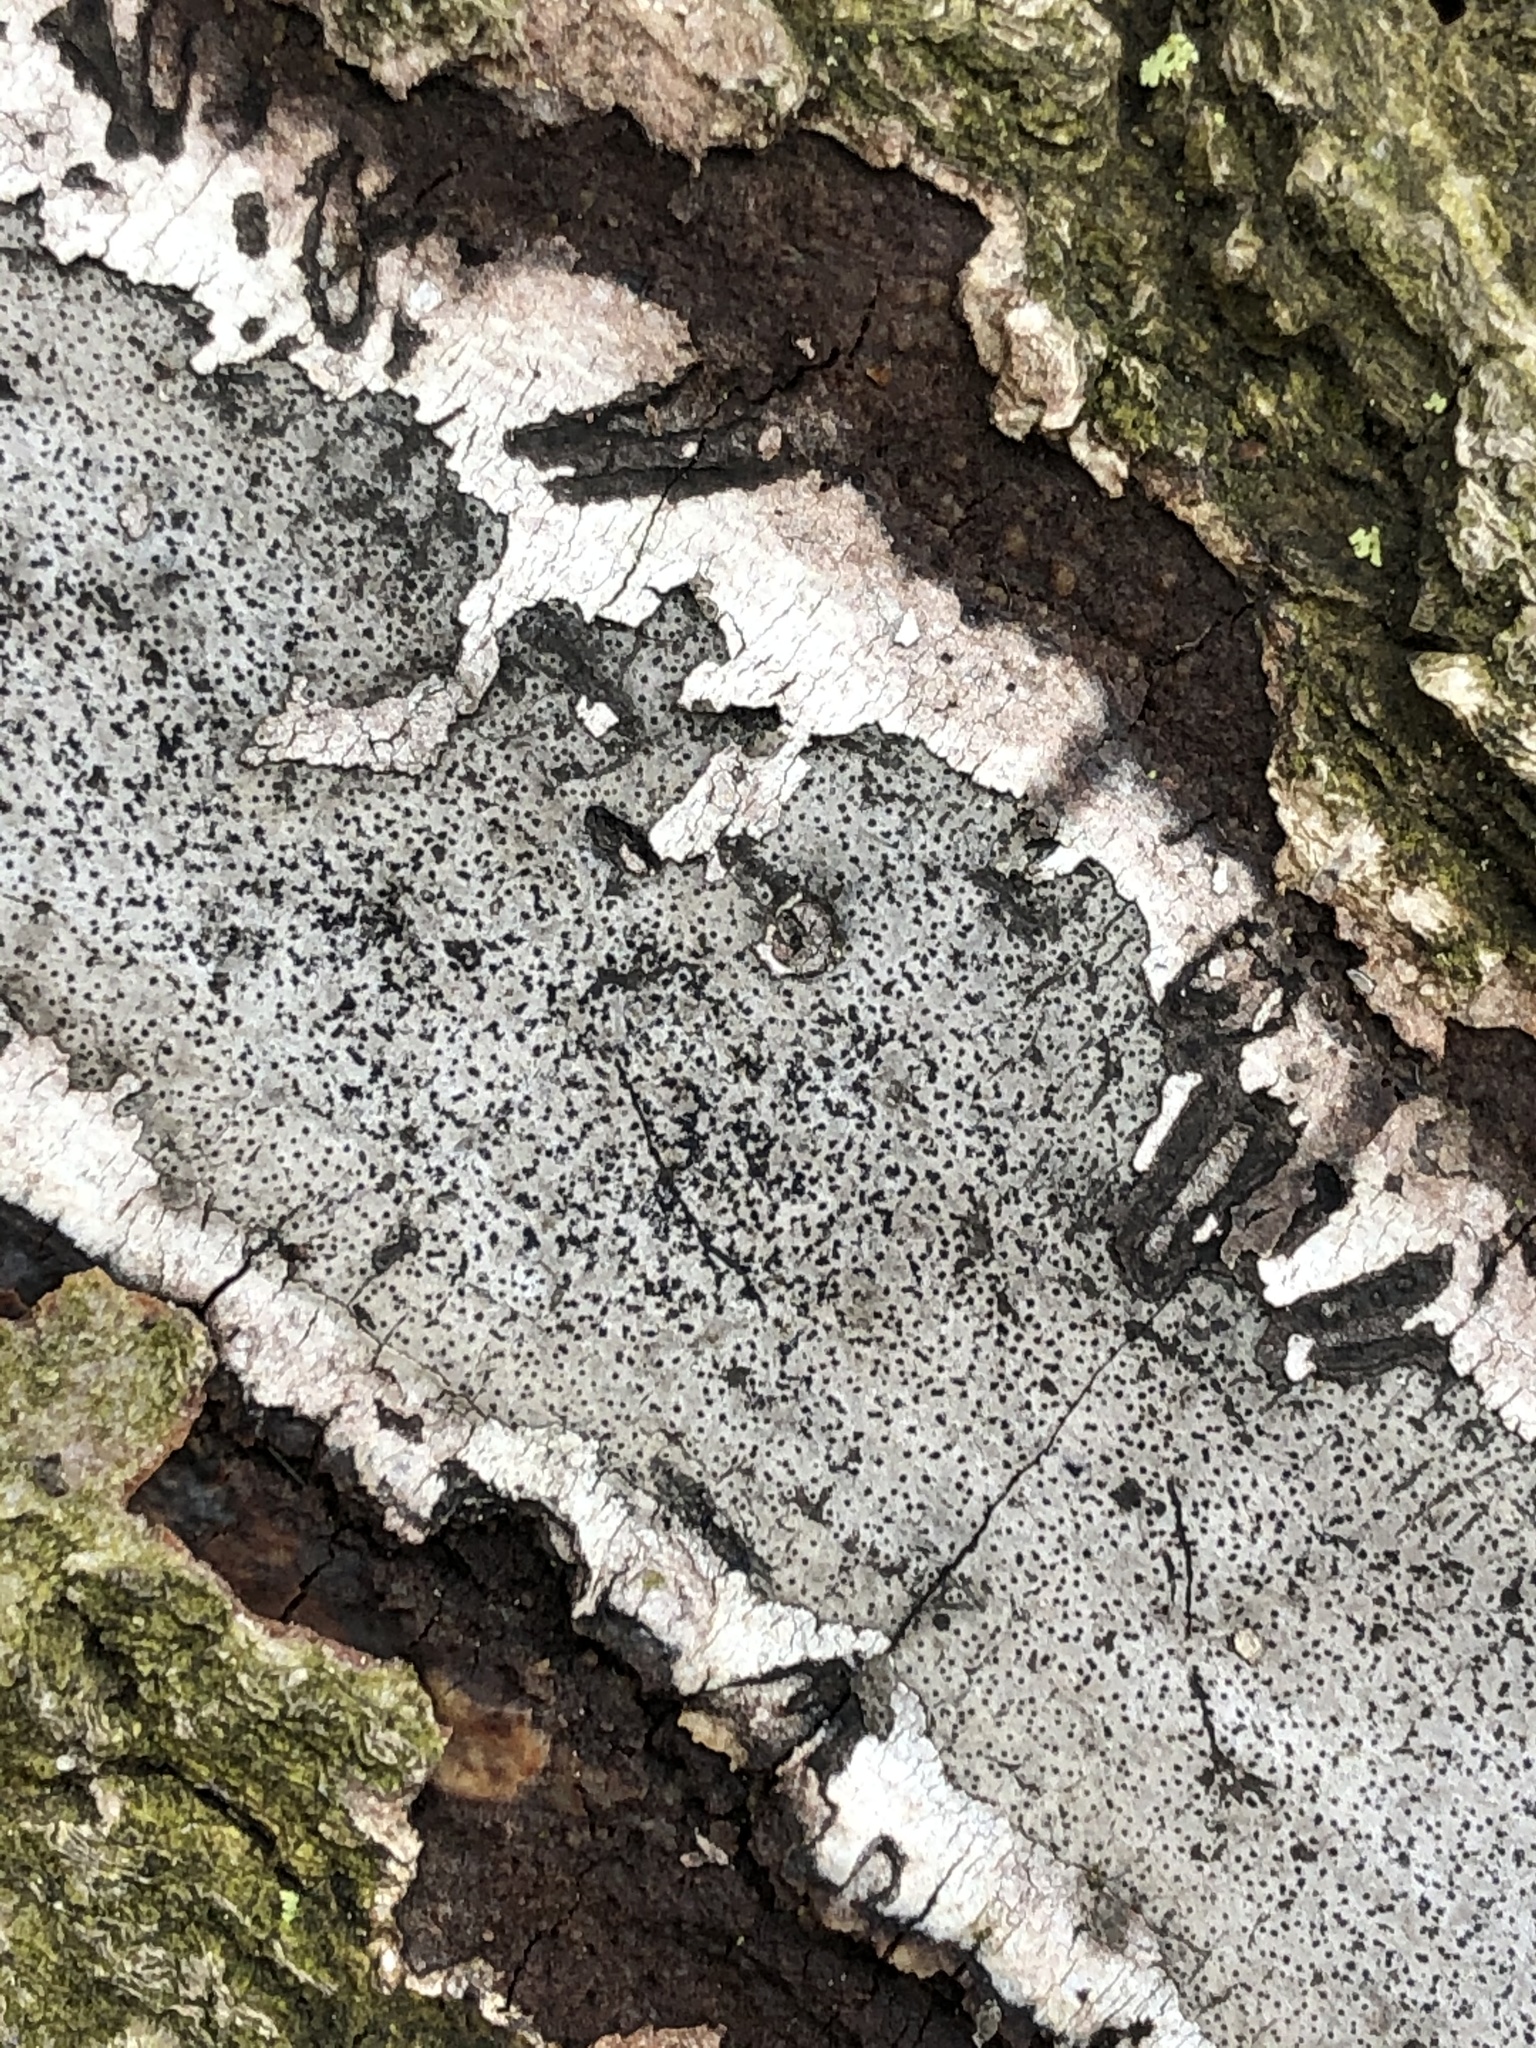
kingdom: Fungi
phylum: Ascomycota
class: Sordariomycetes
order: Xylariales
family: Graphostromataceae
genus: Biscogniauxia
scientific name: Biscogniauxia atropunctata
